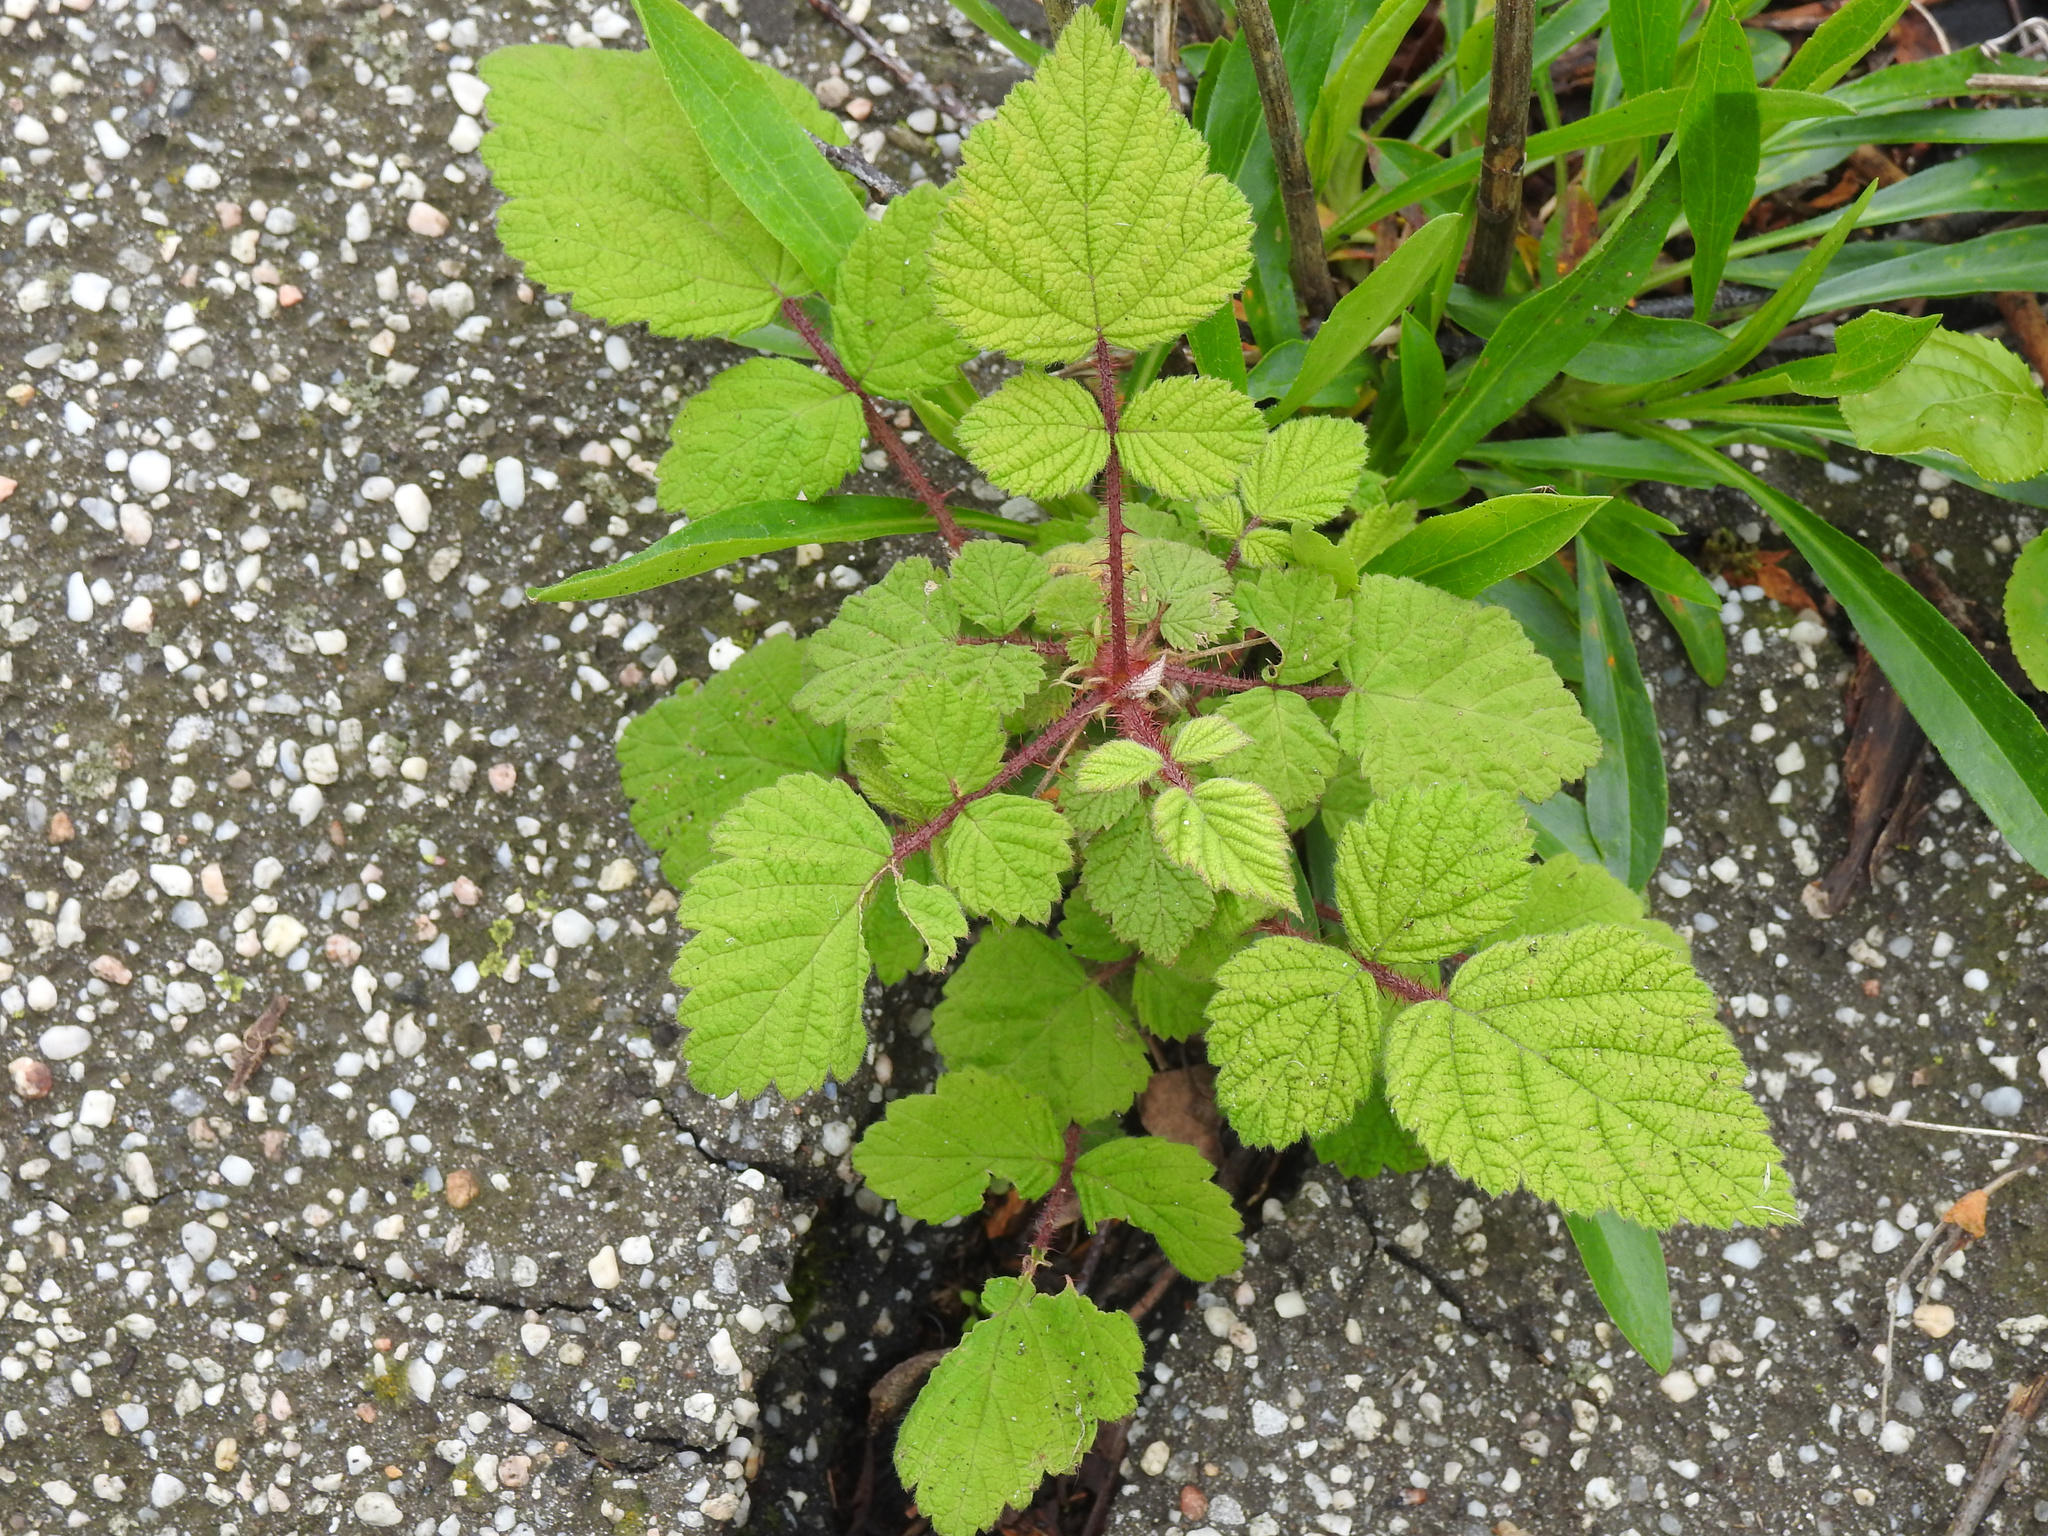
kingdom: Plantae
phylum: Tracheophyta
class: Magnoliopsida
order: Rosales
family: Rosaceae
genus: Rubus
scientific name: Rubus phoenicolasius
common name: Japanese wineberry
